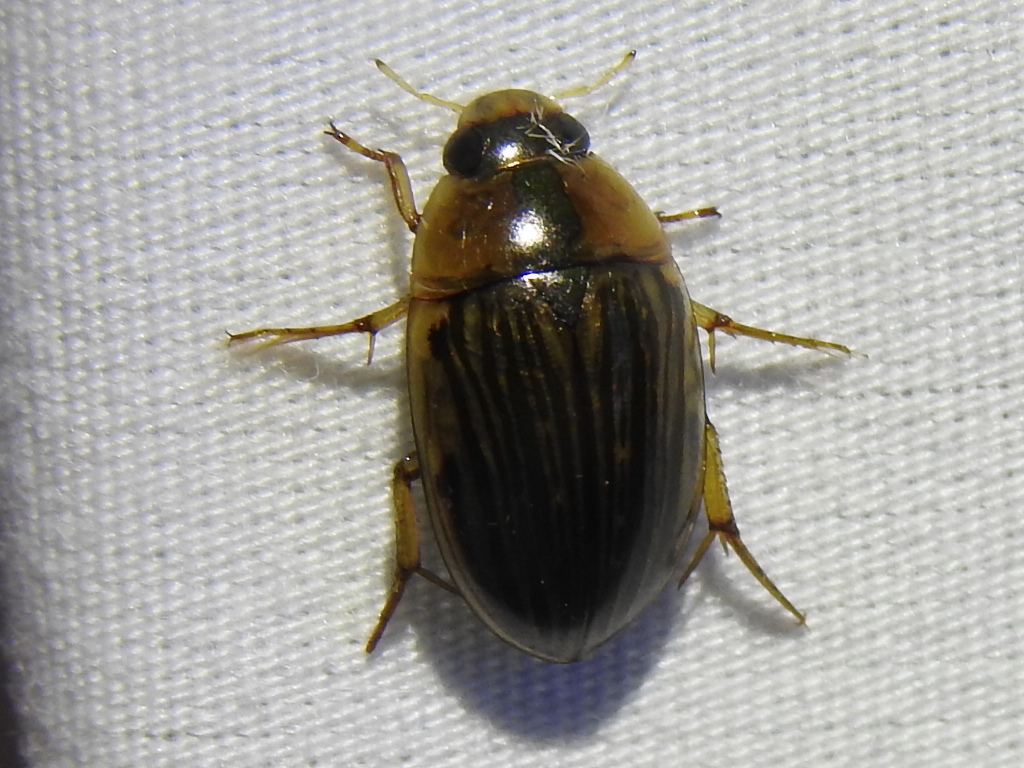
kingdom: Animalia
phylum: Arthropoda
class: Insecta
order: Coleoptera
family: Hydrophilidae
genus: Tropisternus
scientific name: Tropisternus collaris
